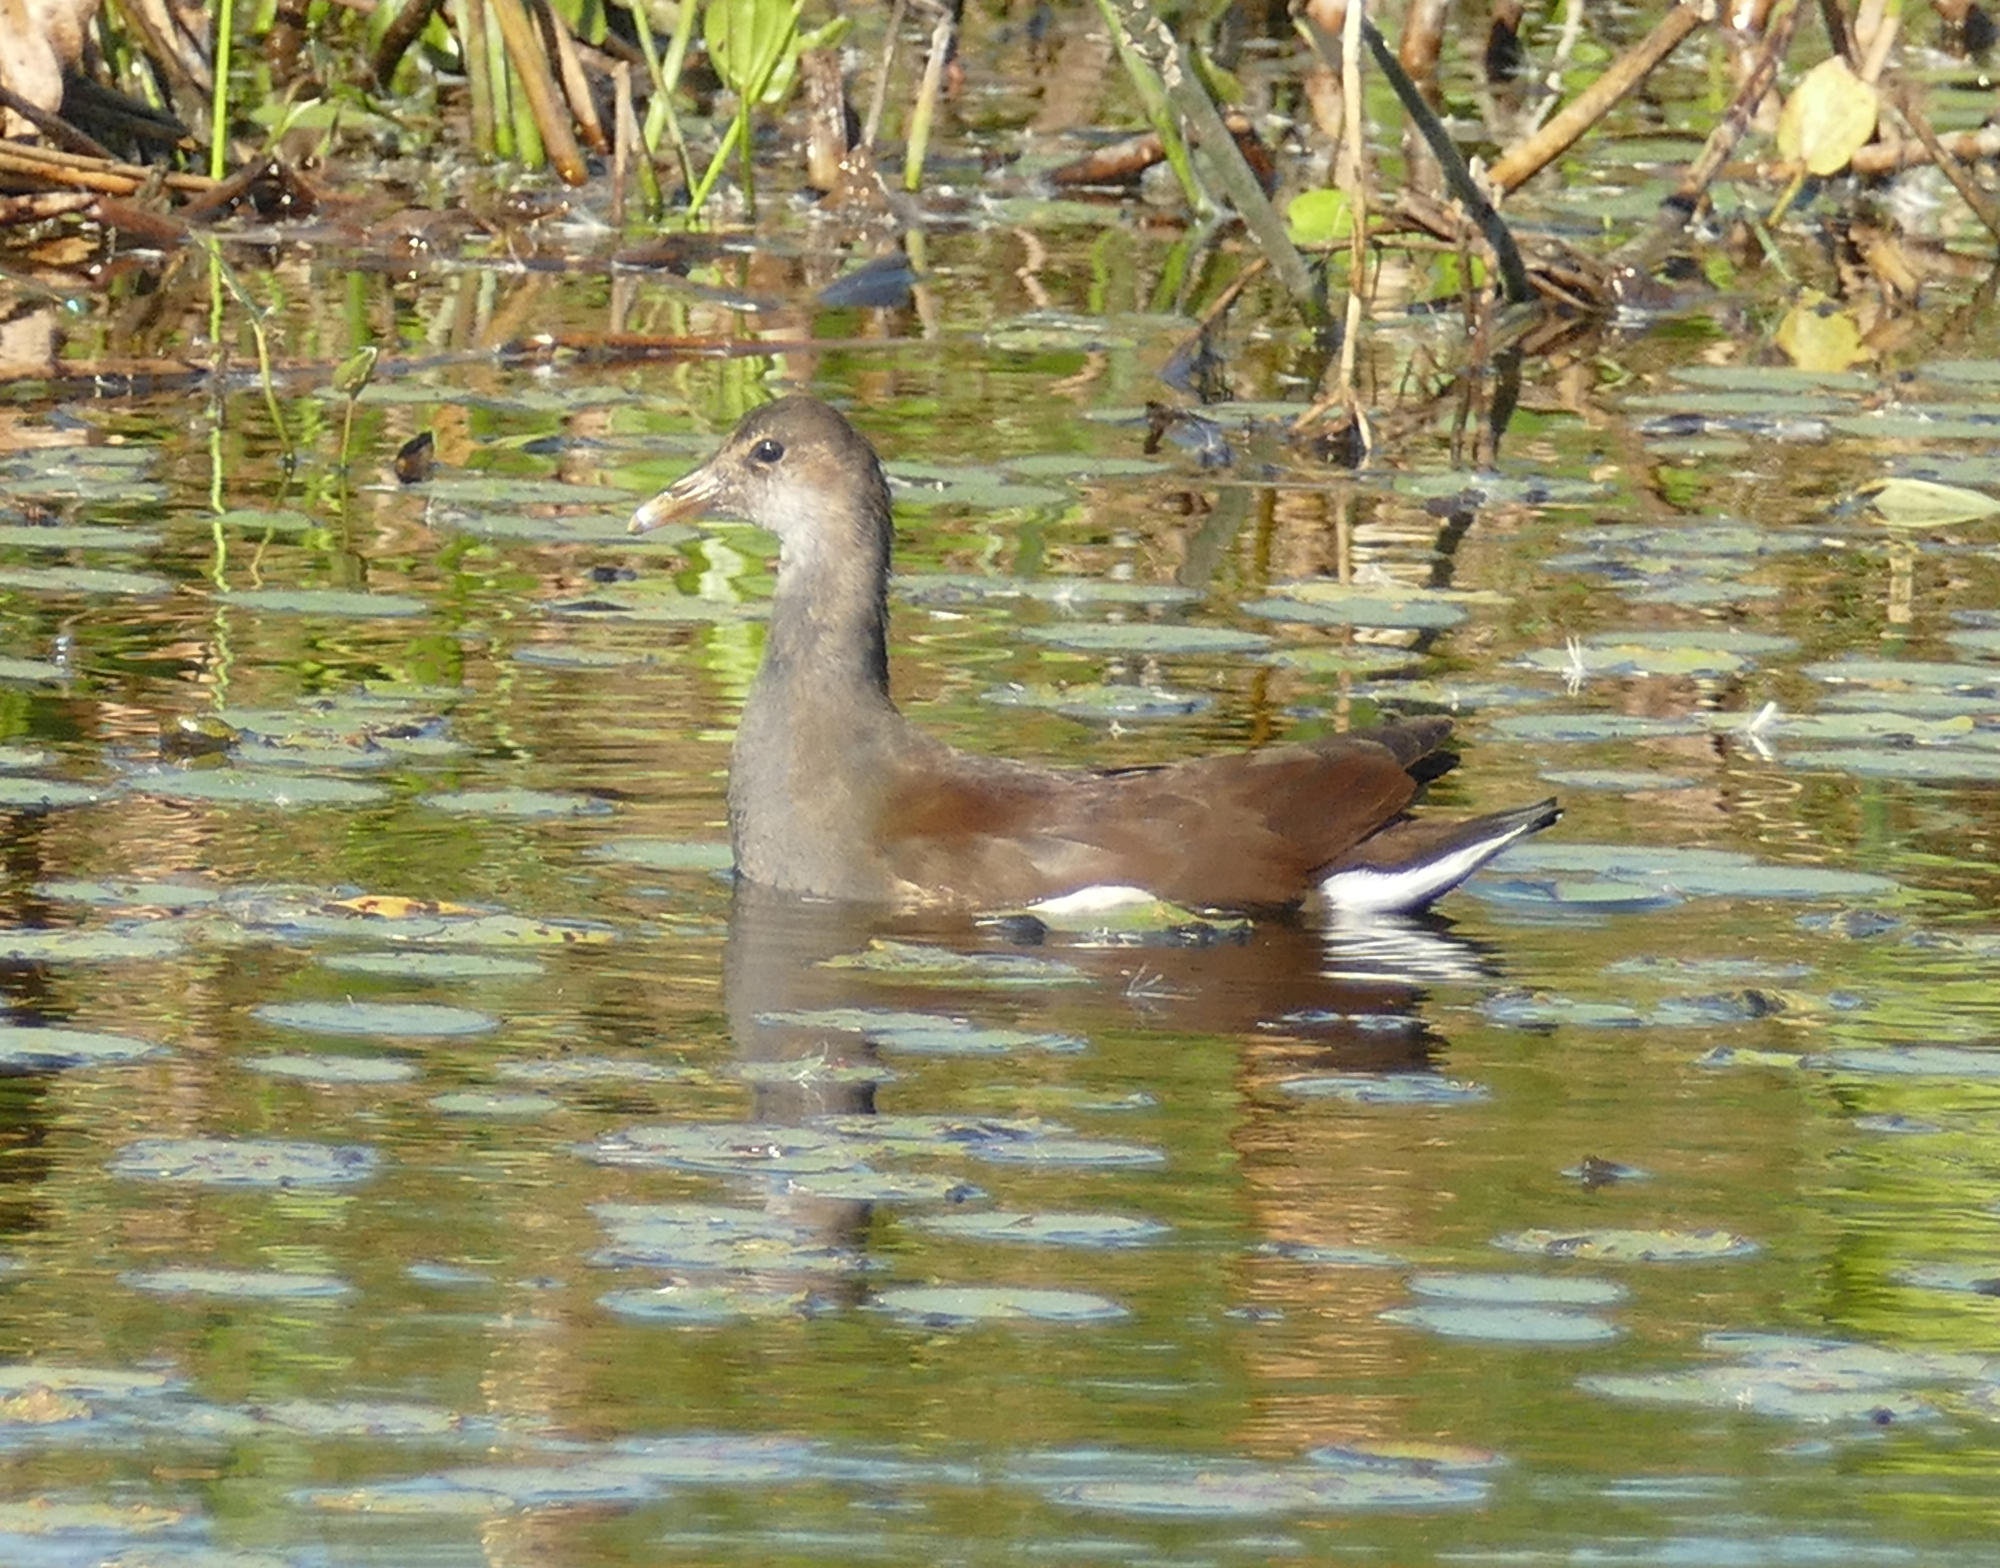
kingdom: Animalia
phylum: Chordata
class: Aves
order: Gruiformes
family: Rallidae
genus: Gallinula
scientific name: Gallinula chloropus
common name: Common moorhen
